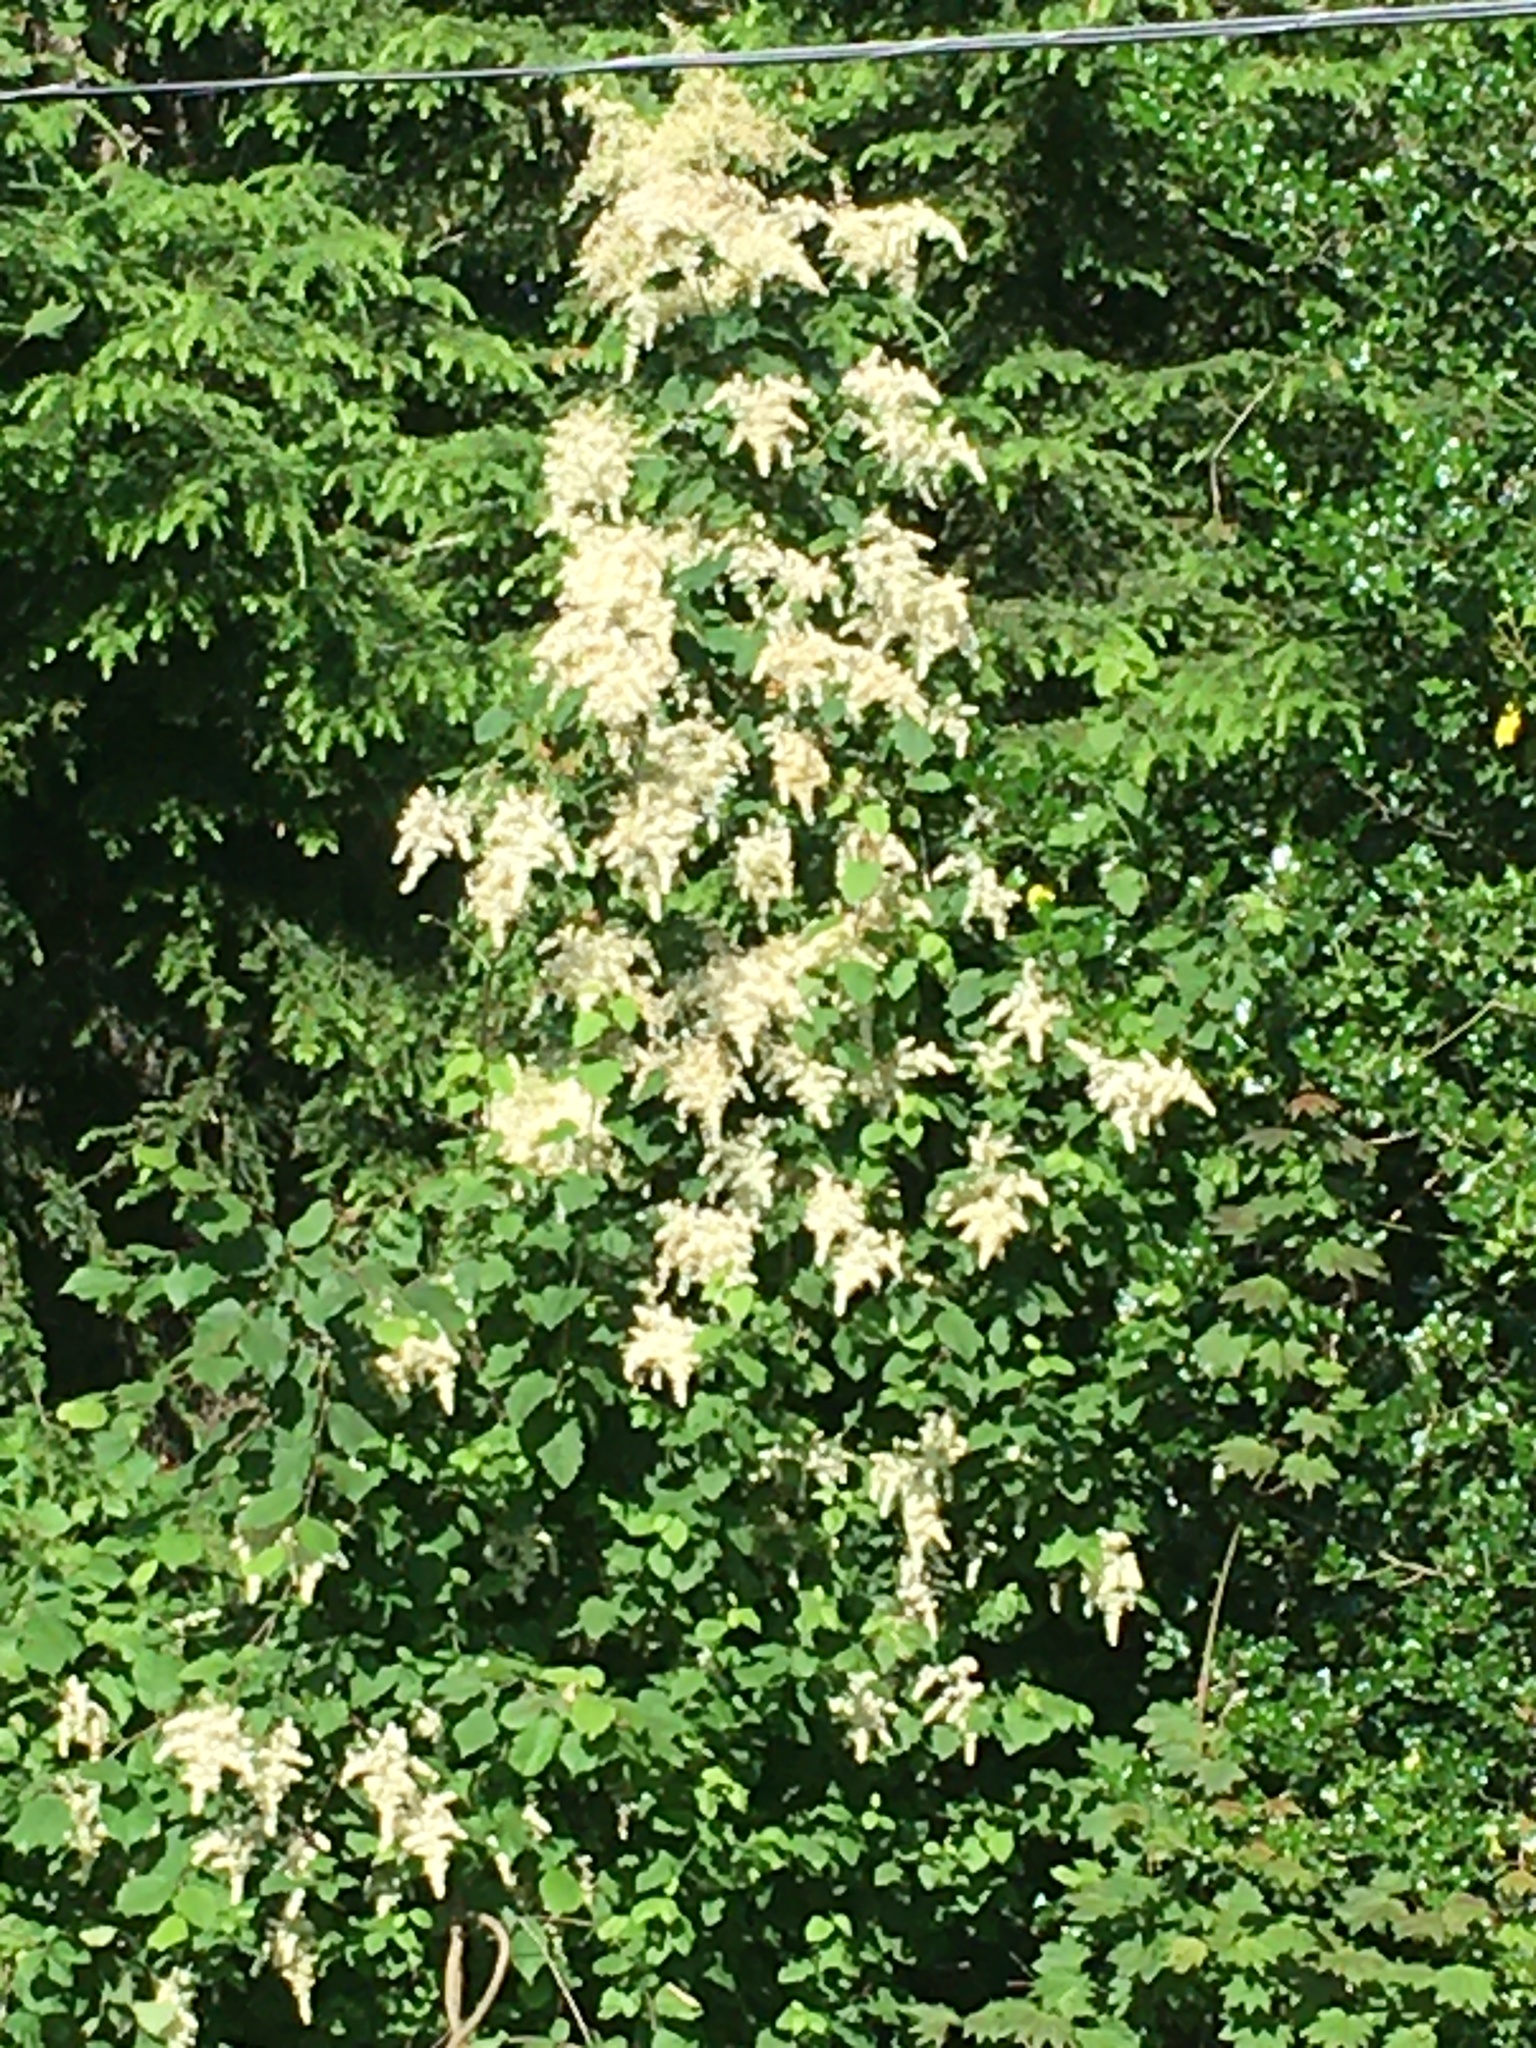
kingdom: Plantae
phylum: Tracheophyta
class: Magnoliopsida
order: Rosales
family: Rosaceae
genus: Holodiscus
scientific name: Holodiscus discolor
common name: Oceanspray
